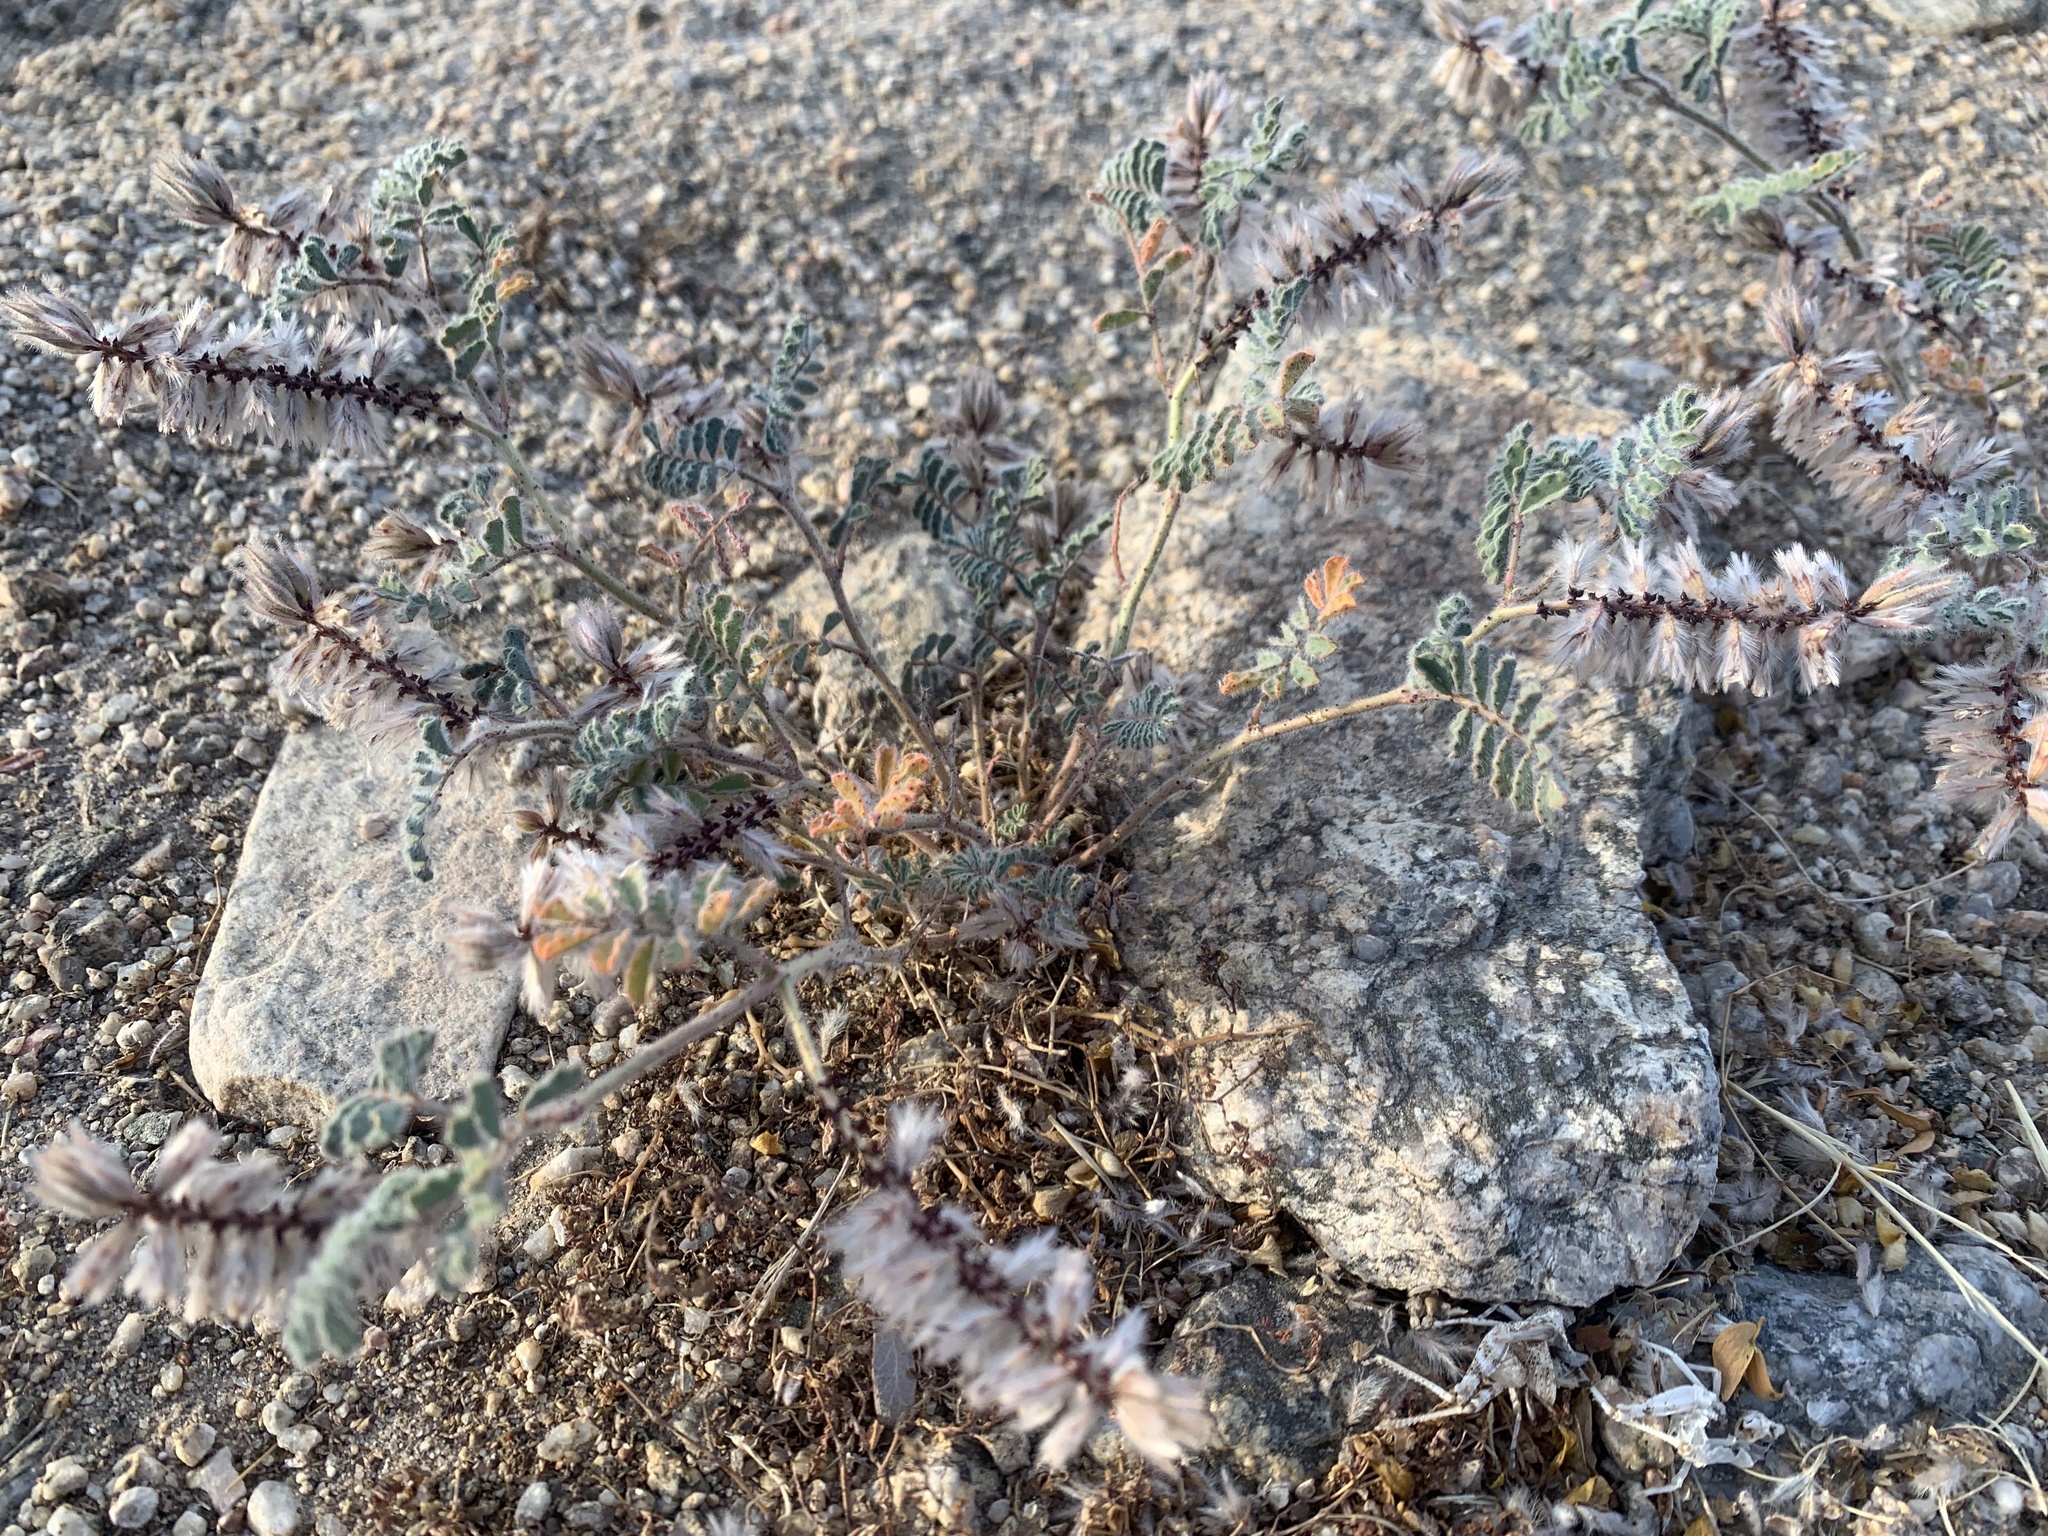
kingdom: Plantae
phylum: Tracheophyta
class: Magnoliopsida
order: Fabales
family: Fabaceae
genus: Dalea
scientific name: Dalea mollissima
